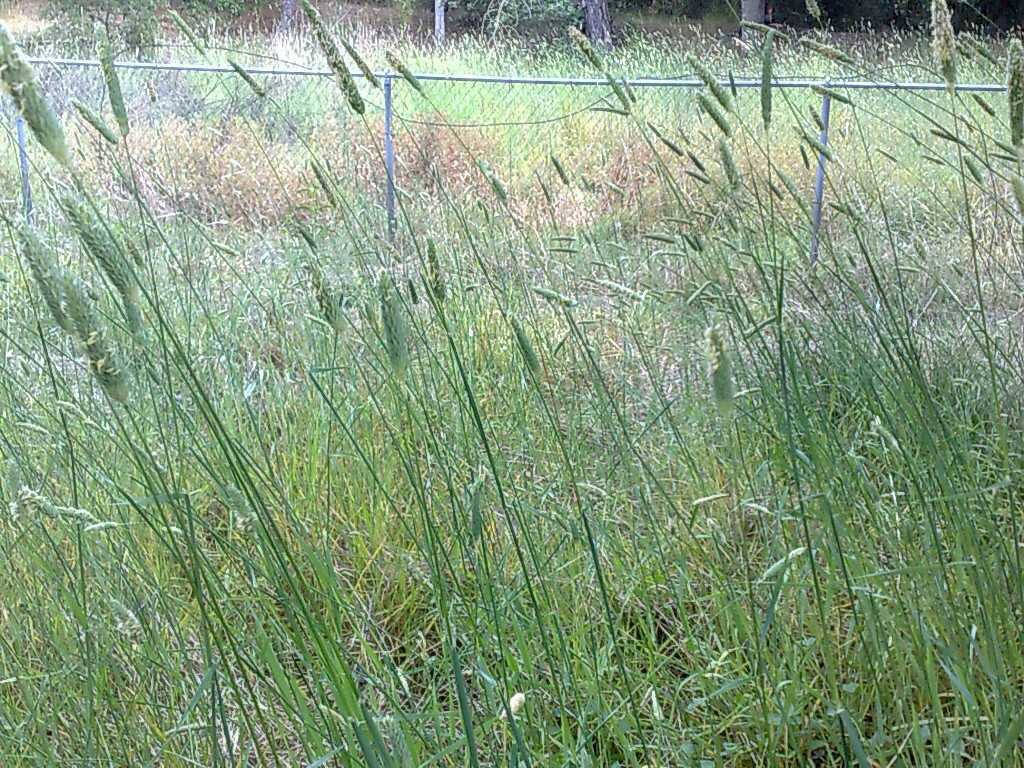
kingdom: Plantae
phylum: Tracheophyta
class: Liliopsida
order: Poales
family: Poaceae
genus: Phalaris
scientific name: Phalaris aquatica
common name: Bulbous canary-grass
